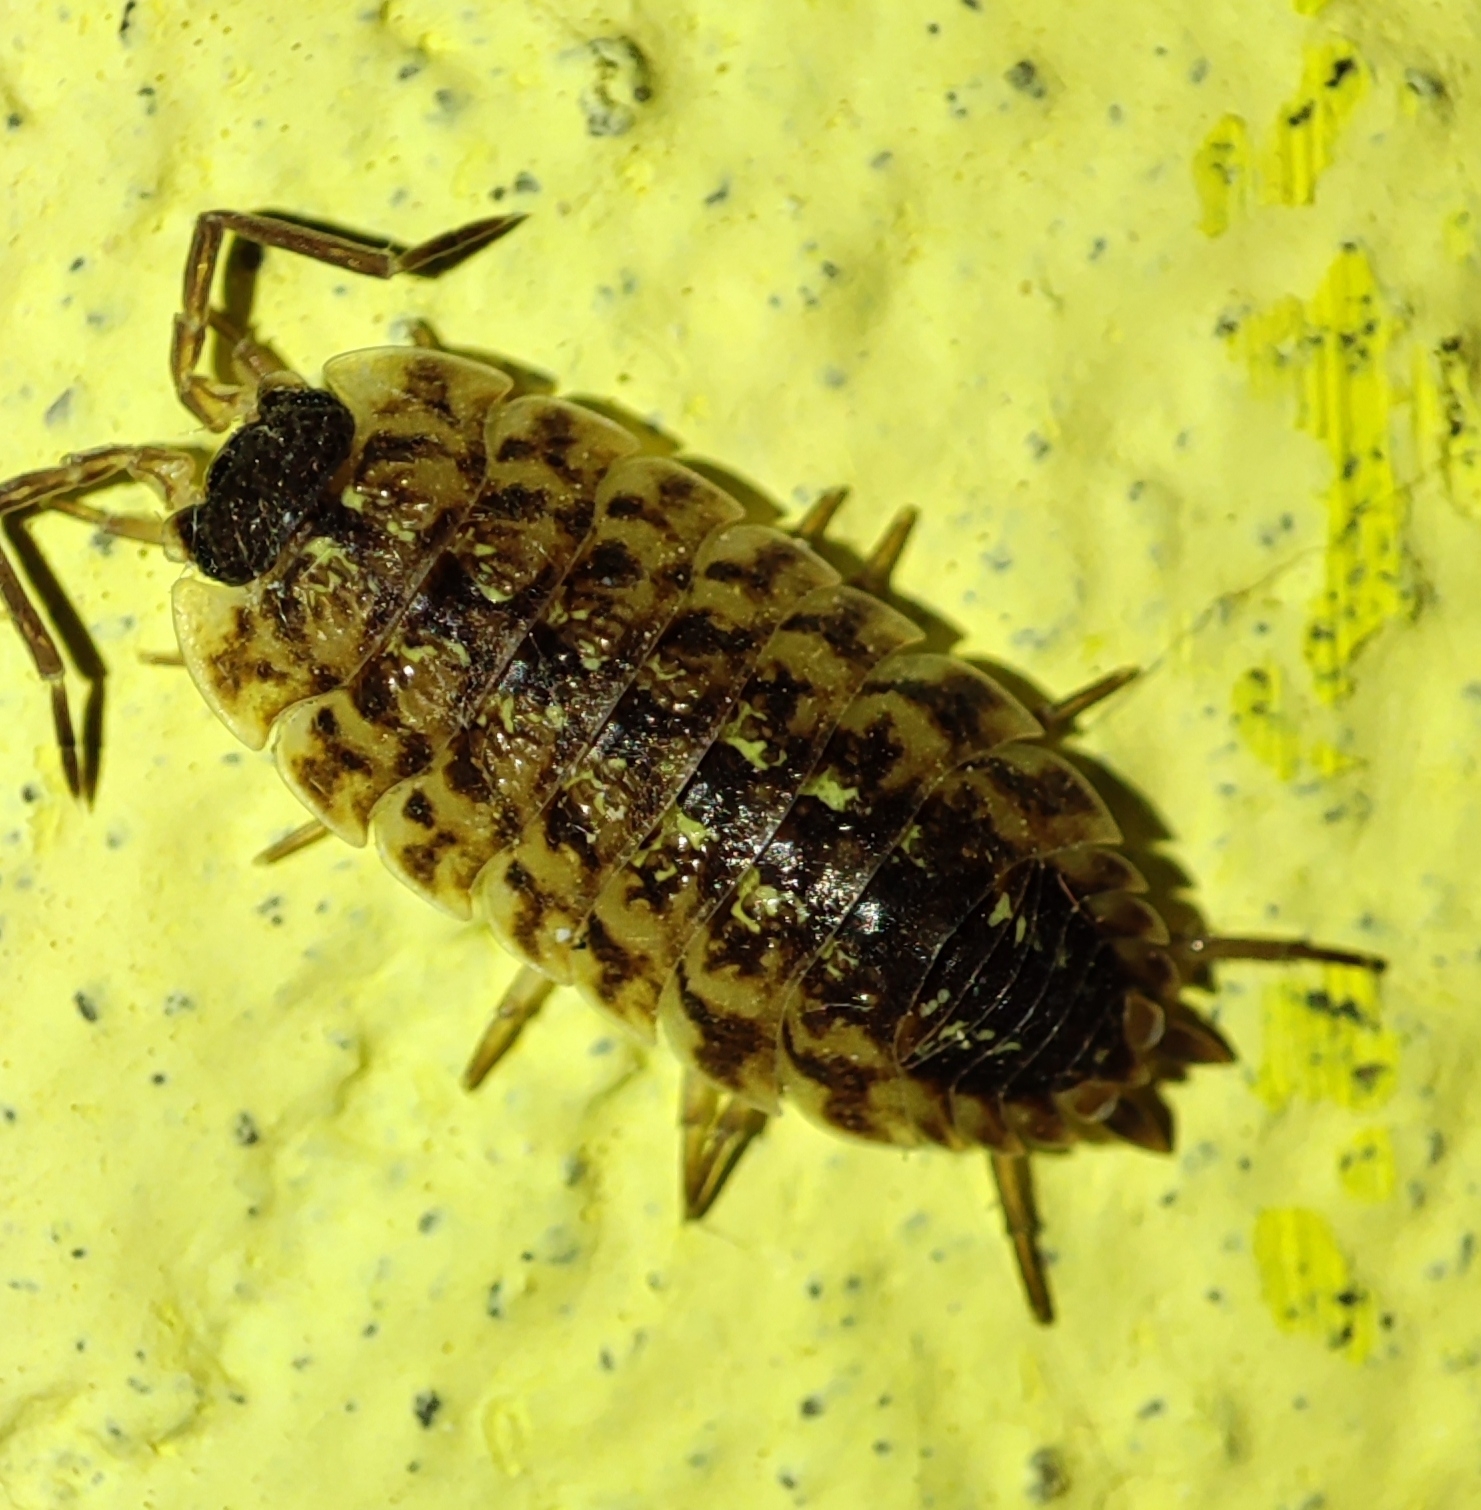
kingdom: Animalia
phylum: Arthropoda
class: Malacostraca
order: Isopoda
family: Porcellionidae
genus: Porcellio
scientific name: Porcellio spinicornis
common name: Painted woodlouse
